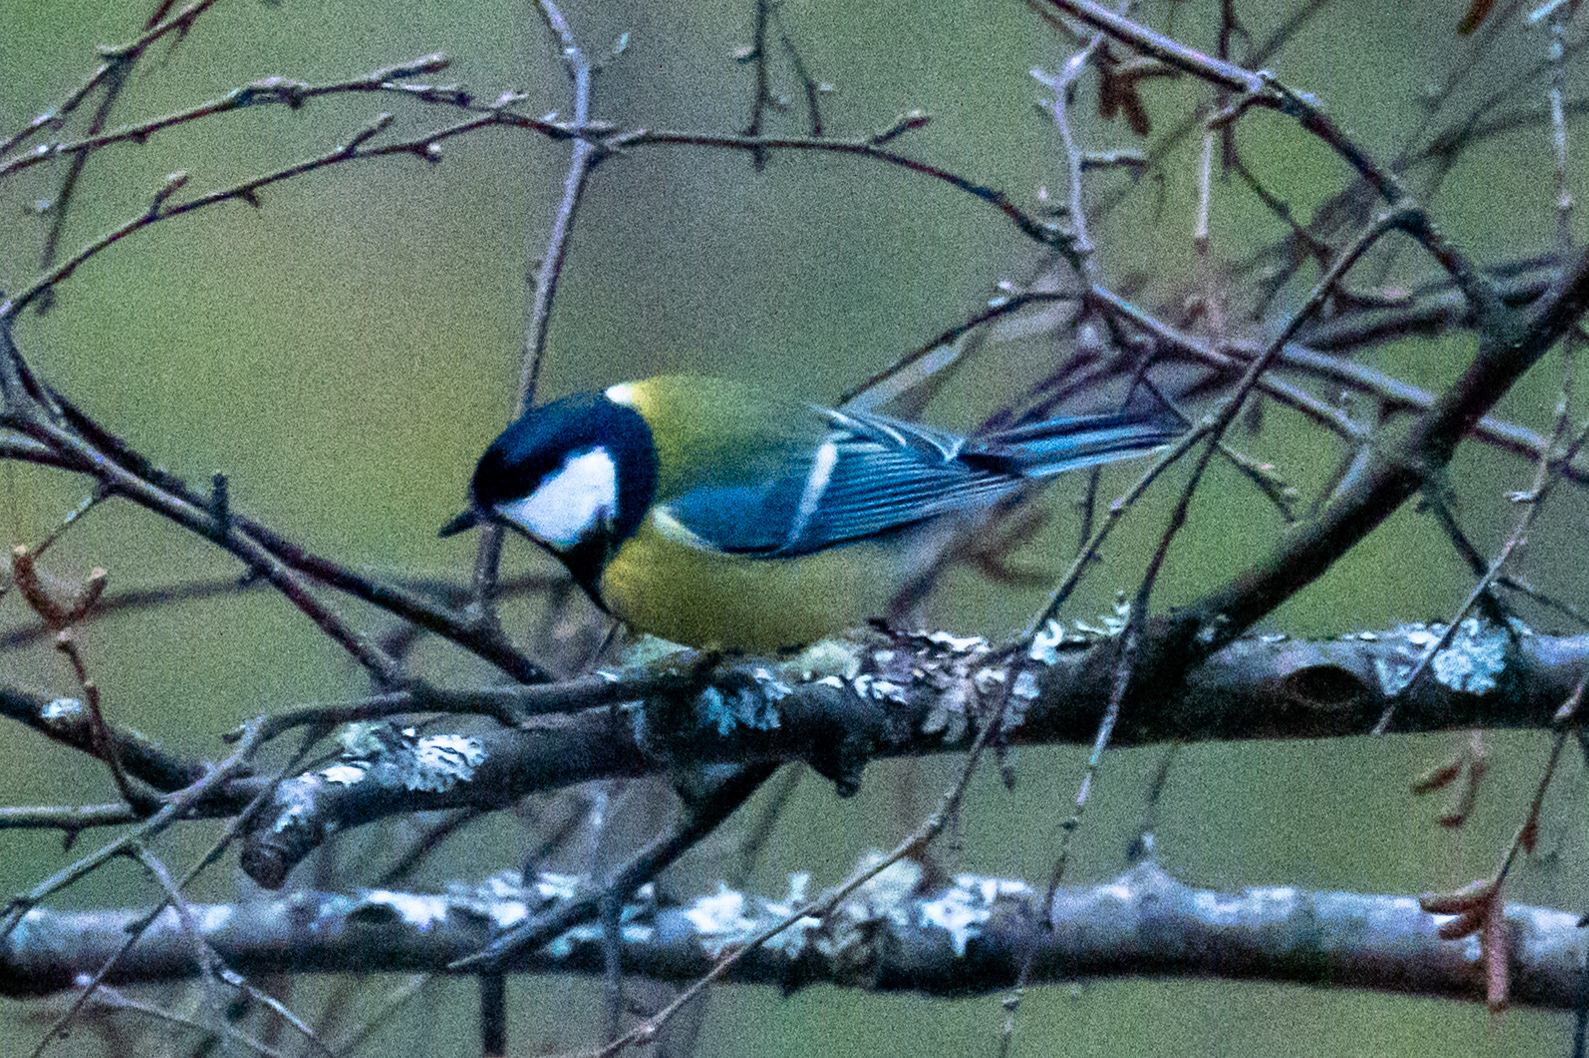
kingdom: Animalia
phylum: Chordata
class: Aves
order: Passeriformes
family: Paridae
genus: Parus
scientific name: Parus major
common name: Great tit
